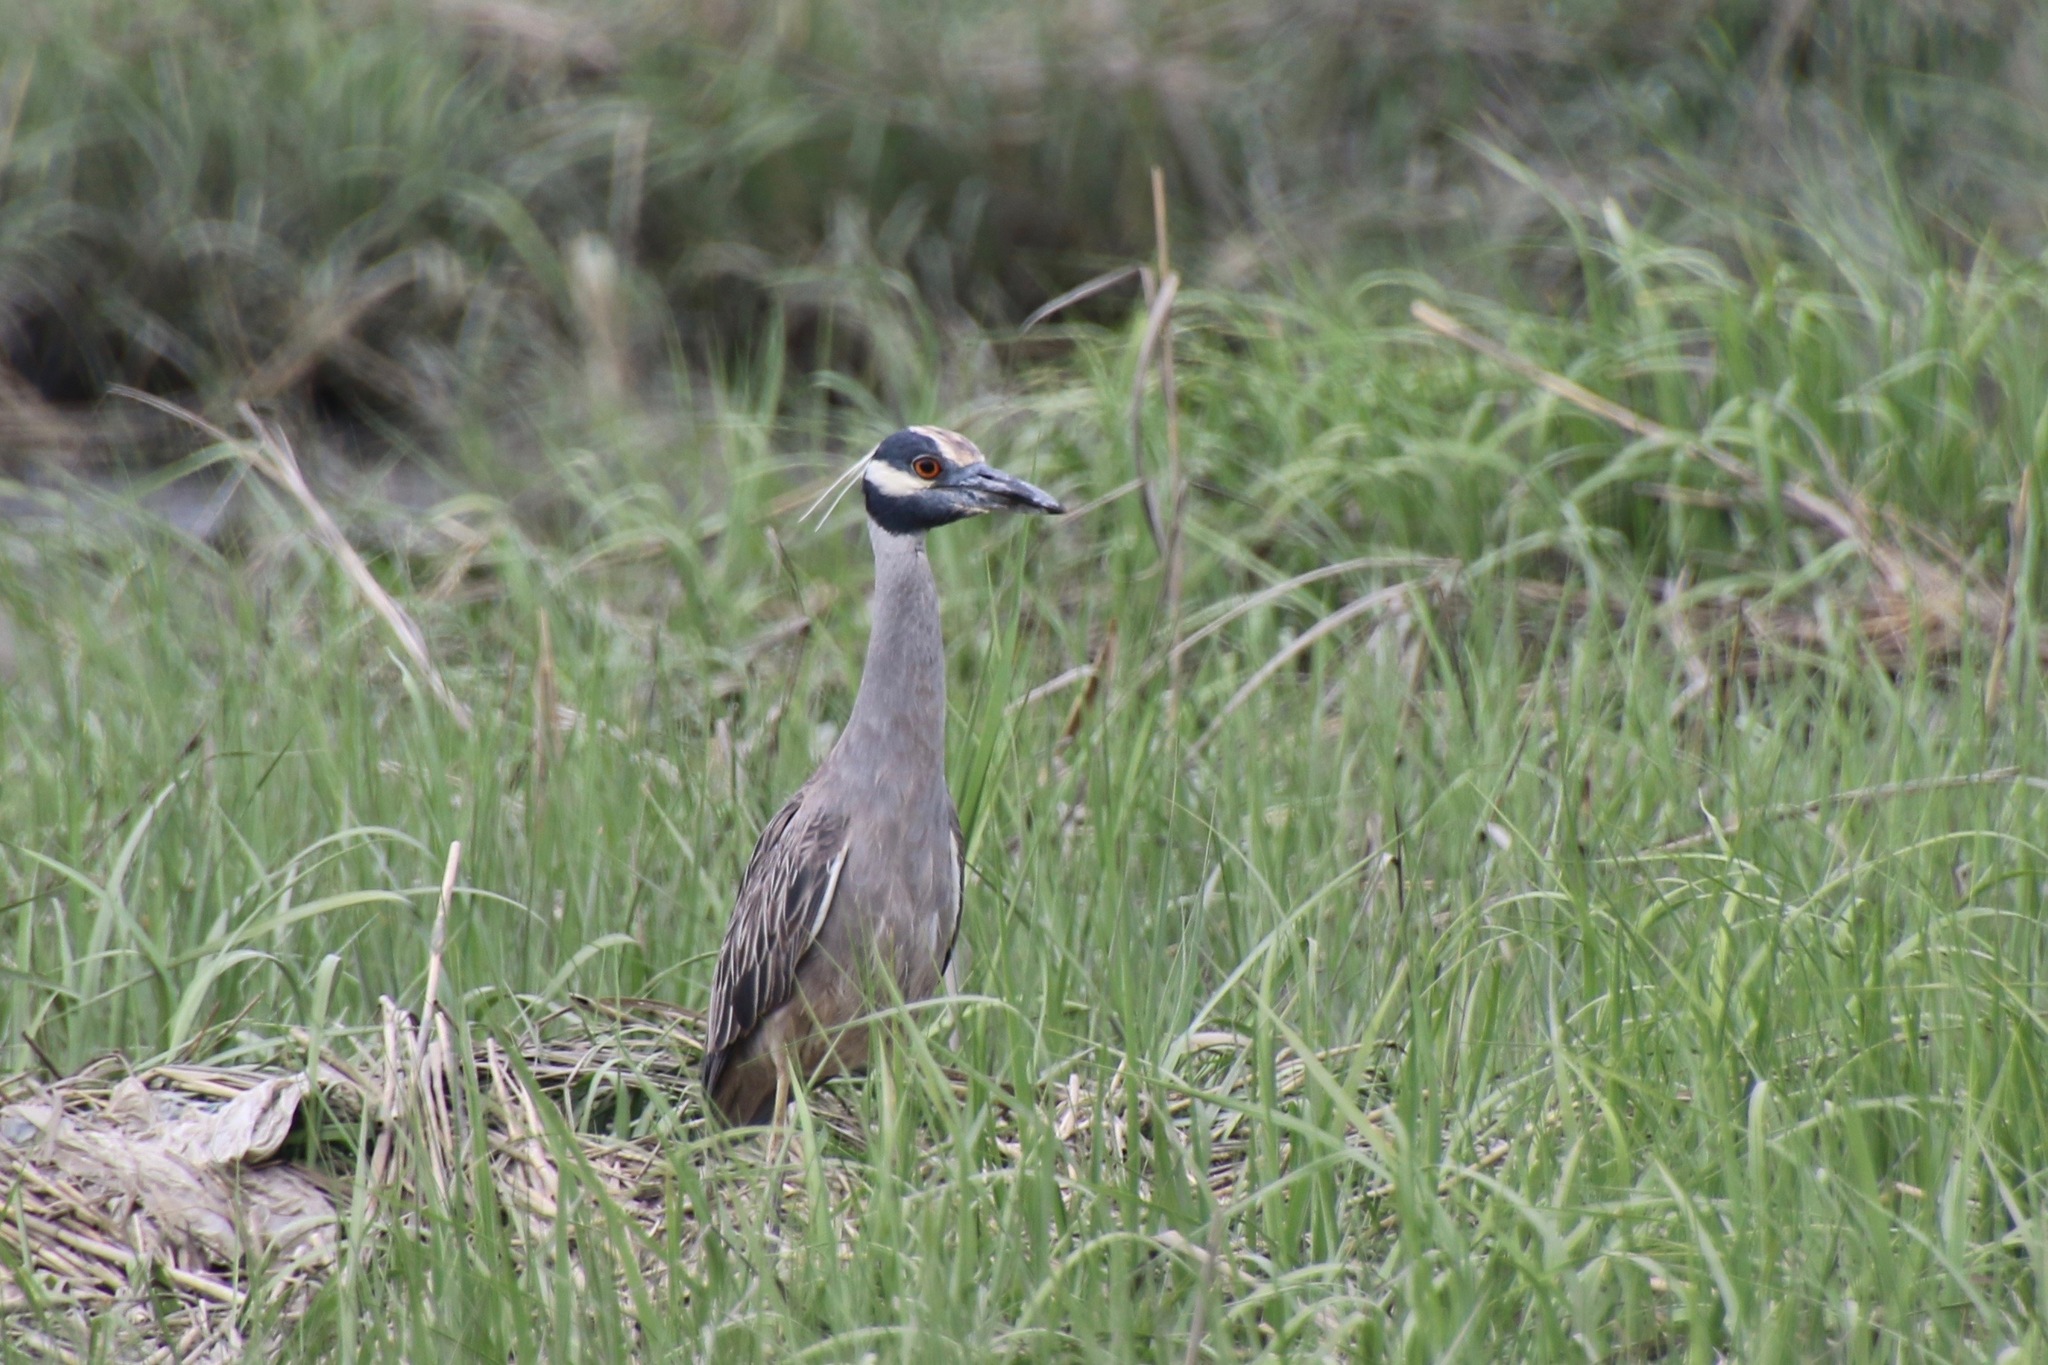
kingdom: Animalia
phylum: Chordata
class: Aves
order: Pelecaniformes
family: Ardeidae
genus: Nyctanassa
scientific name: Nyctanassa violacea
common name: Yellow-crowned night heron
